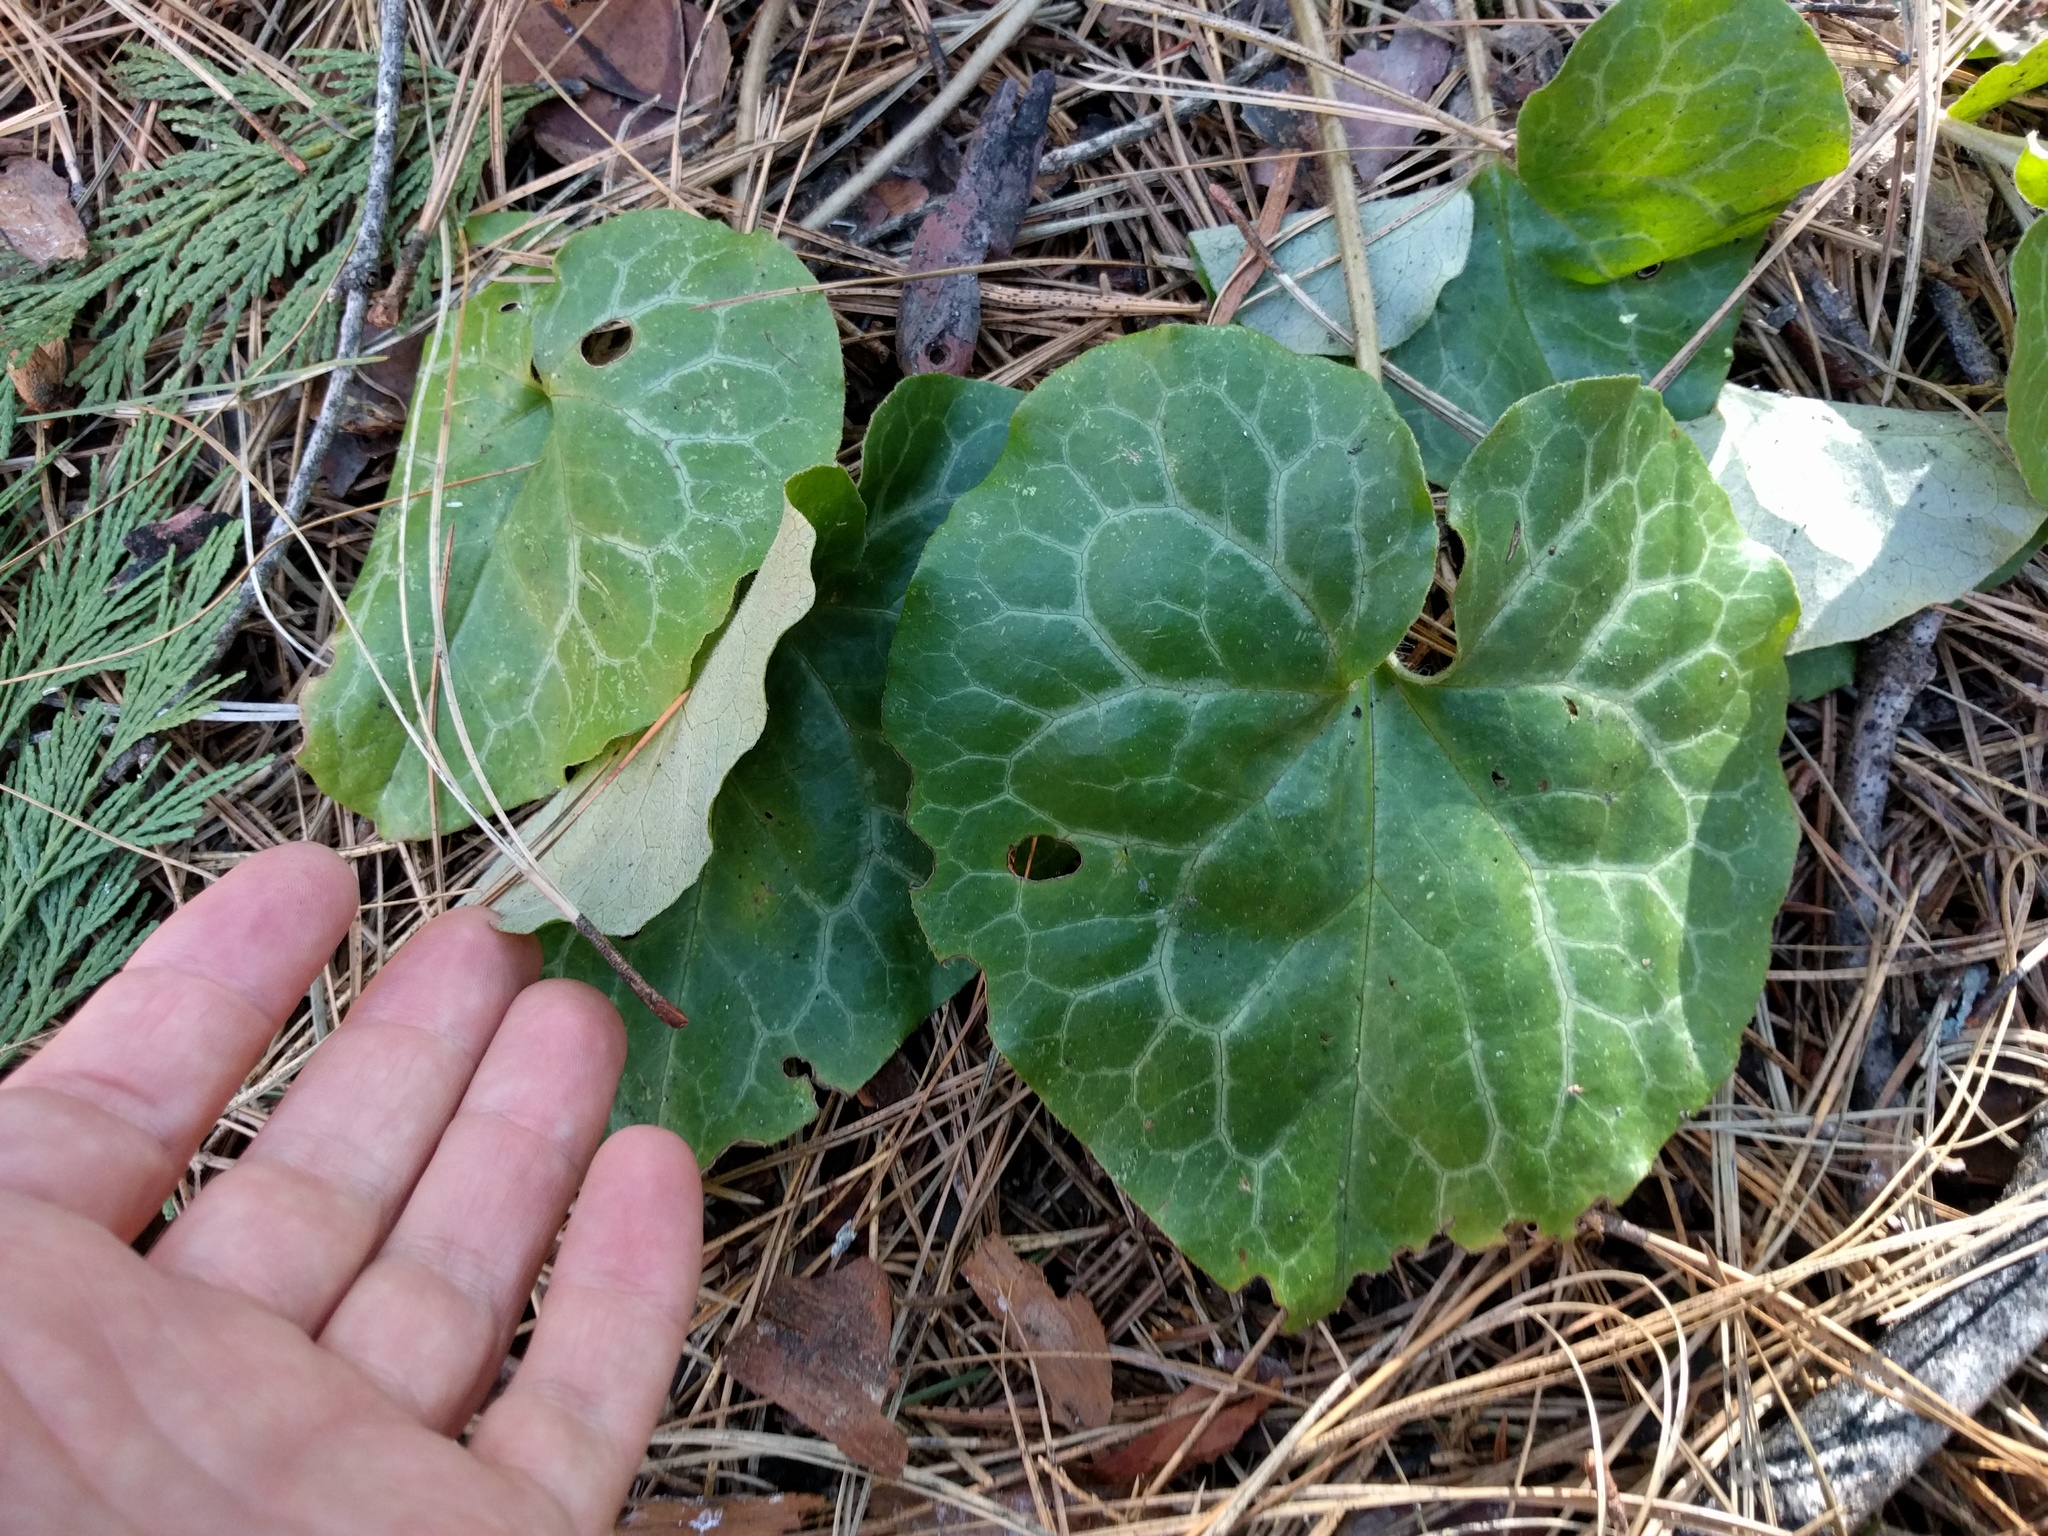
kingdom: Plantae
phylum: Tracheophyta
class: Magnoliopsida
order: Piperales
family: Aristolochiaceae
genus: Asarum
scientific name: Asarum hartwegii
